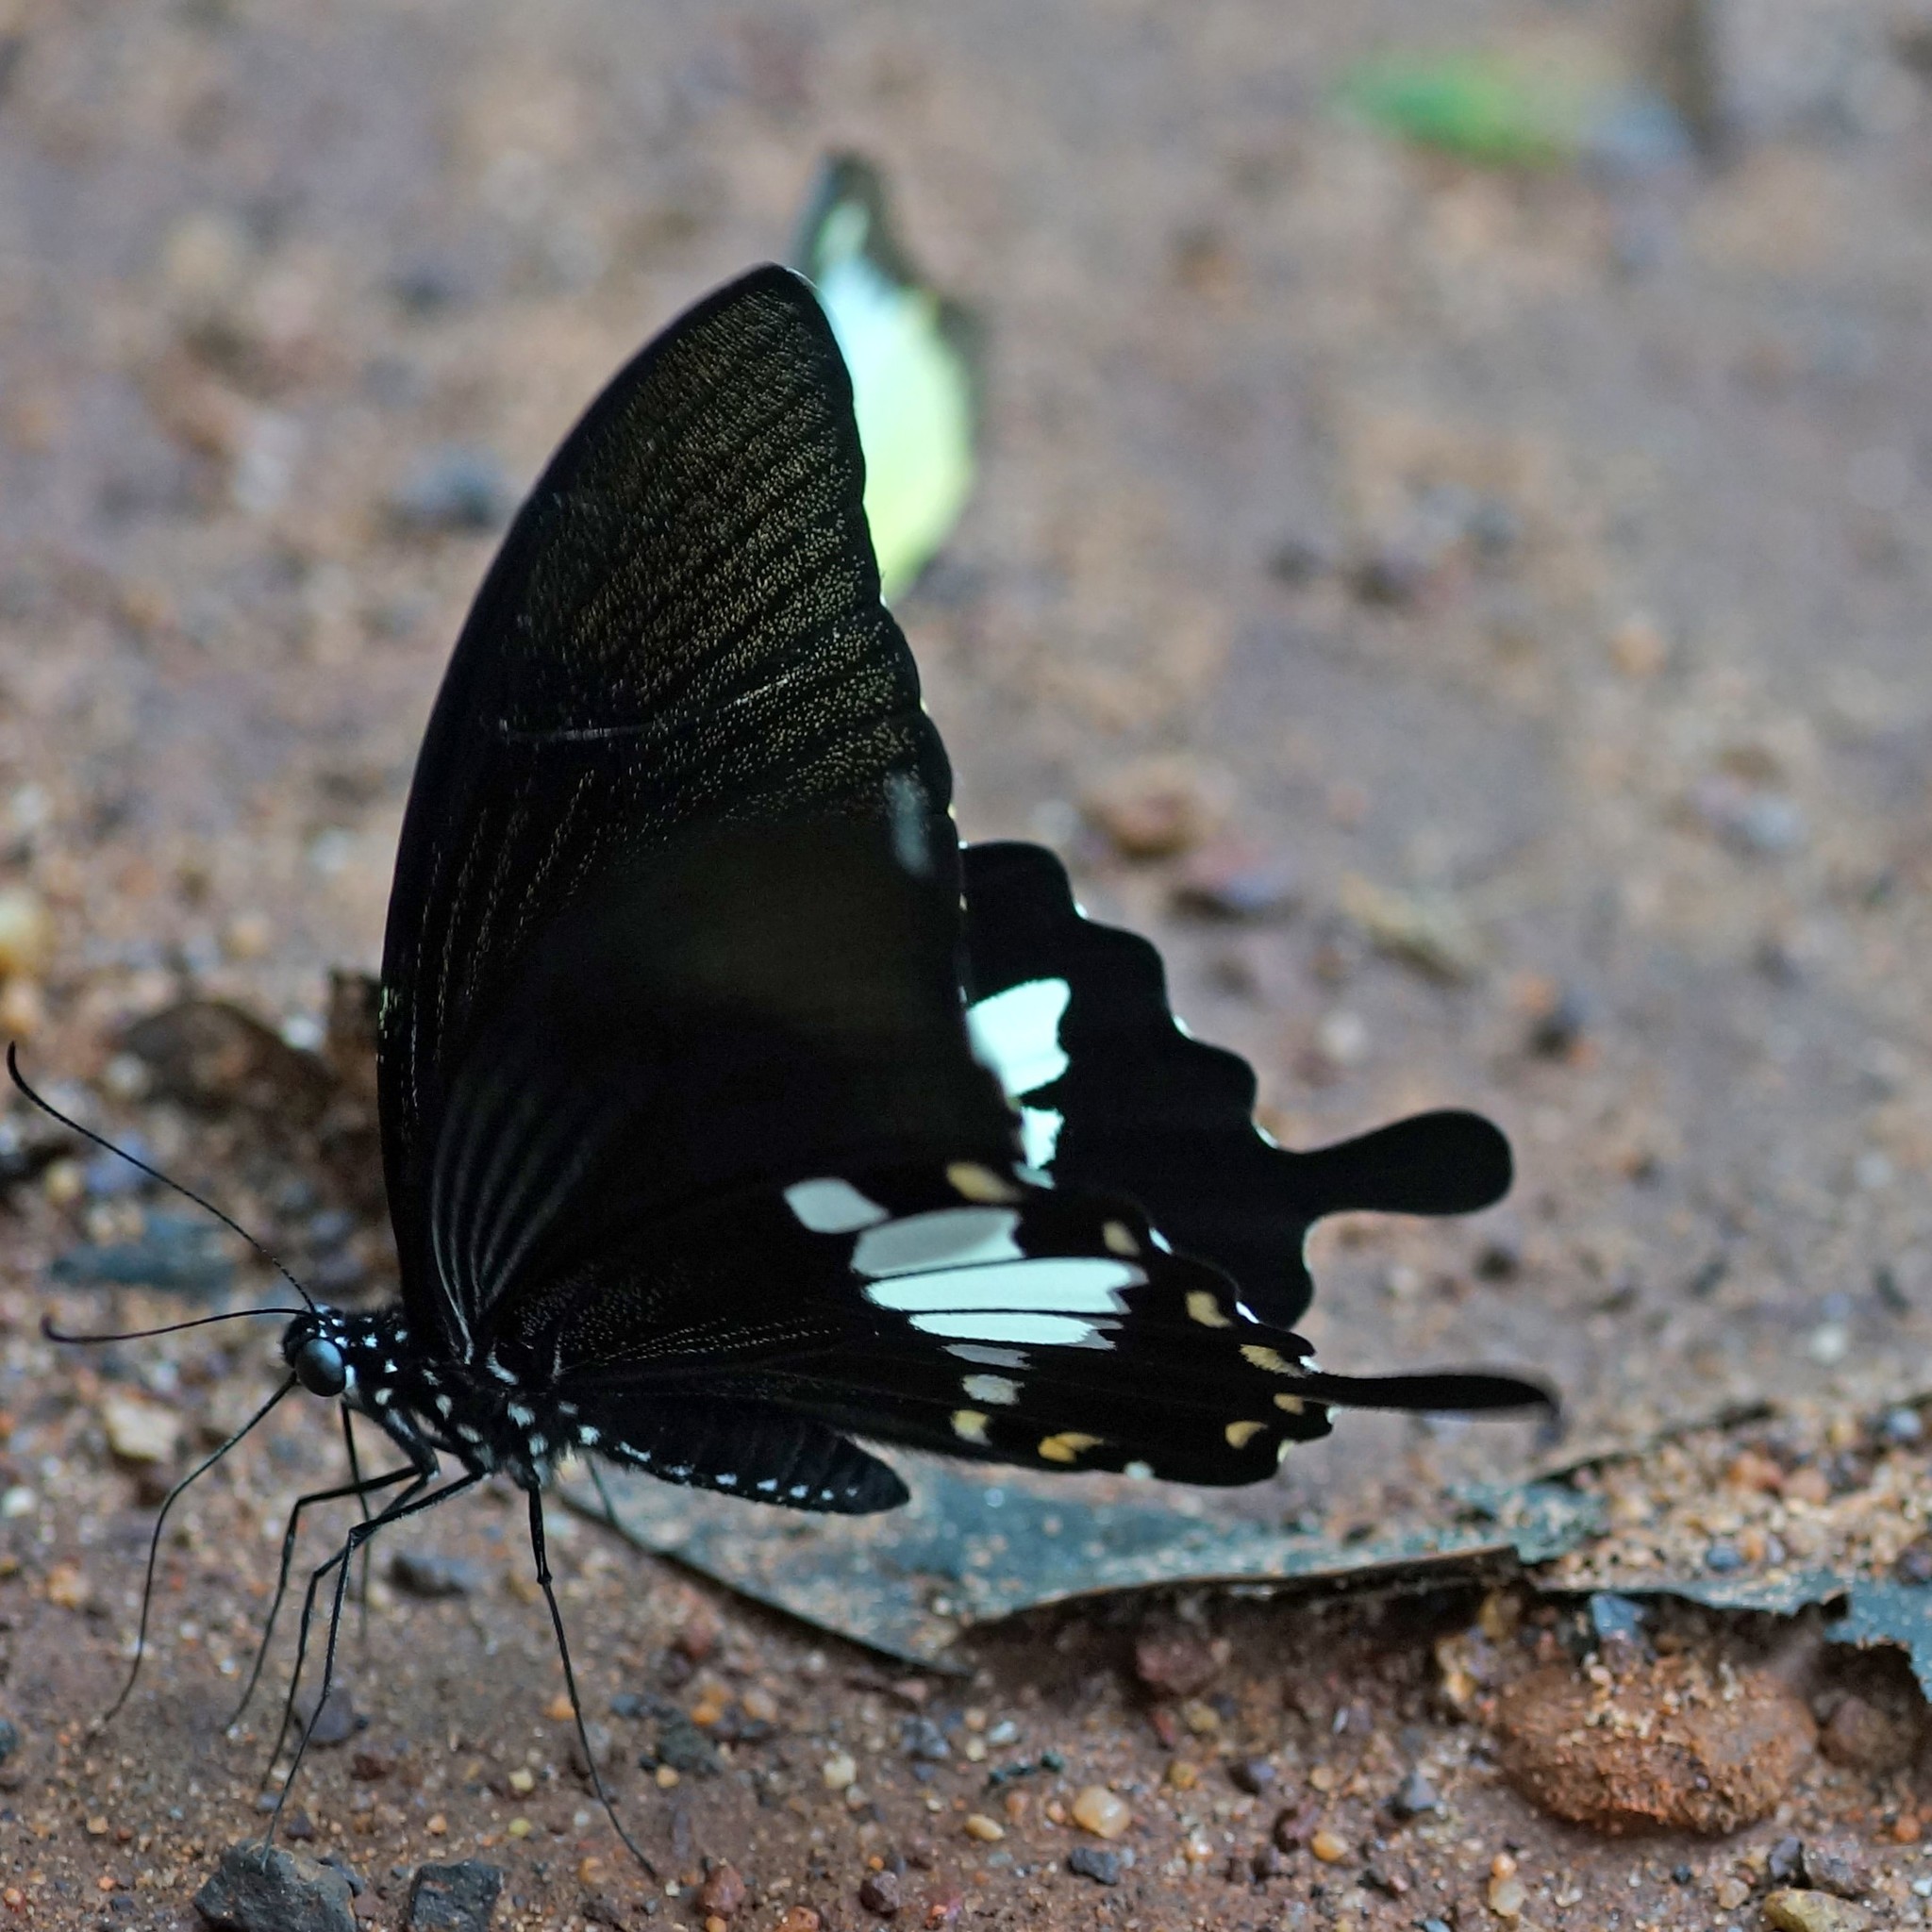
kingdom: Animalia
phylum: Arthropoda
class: Insecta
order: Lepidoptera
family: Papilionidae
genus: Atrophaneura
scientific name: Atrophaneura varuna
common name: Common batwing
